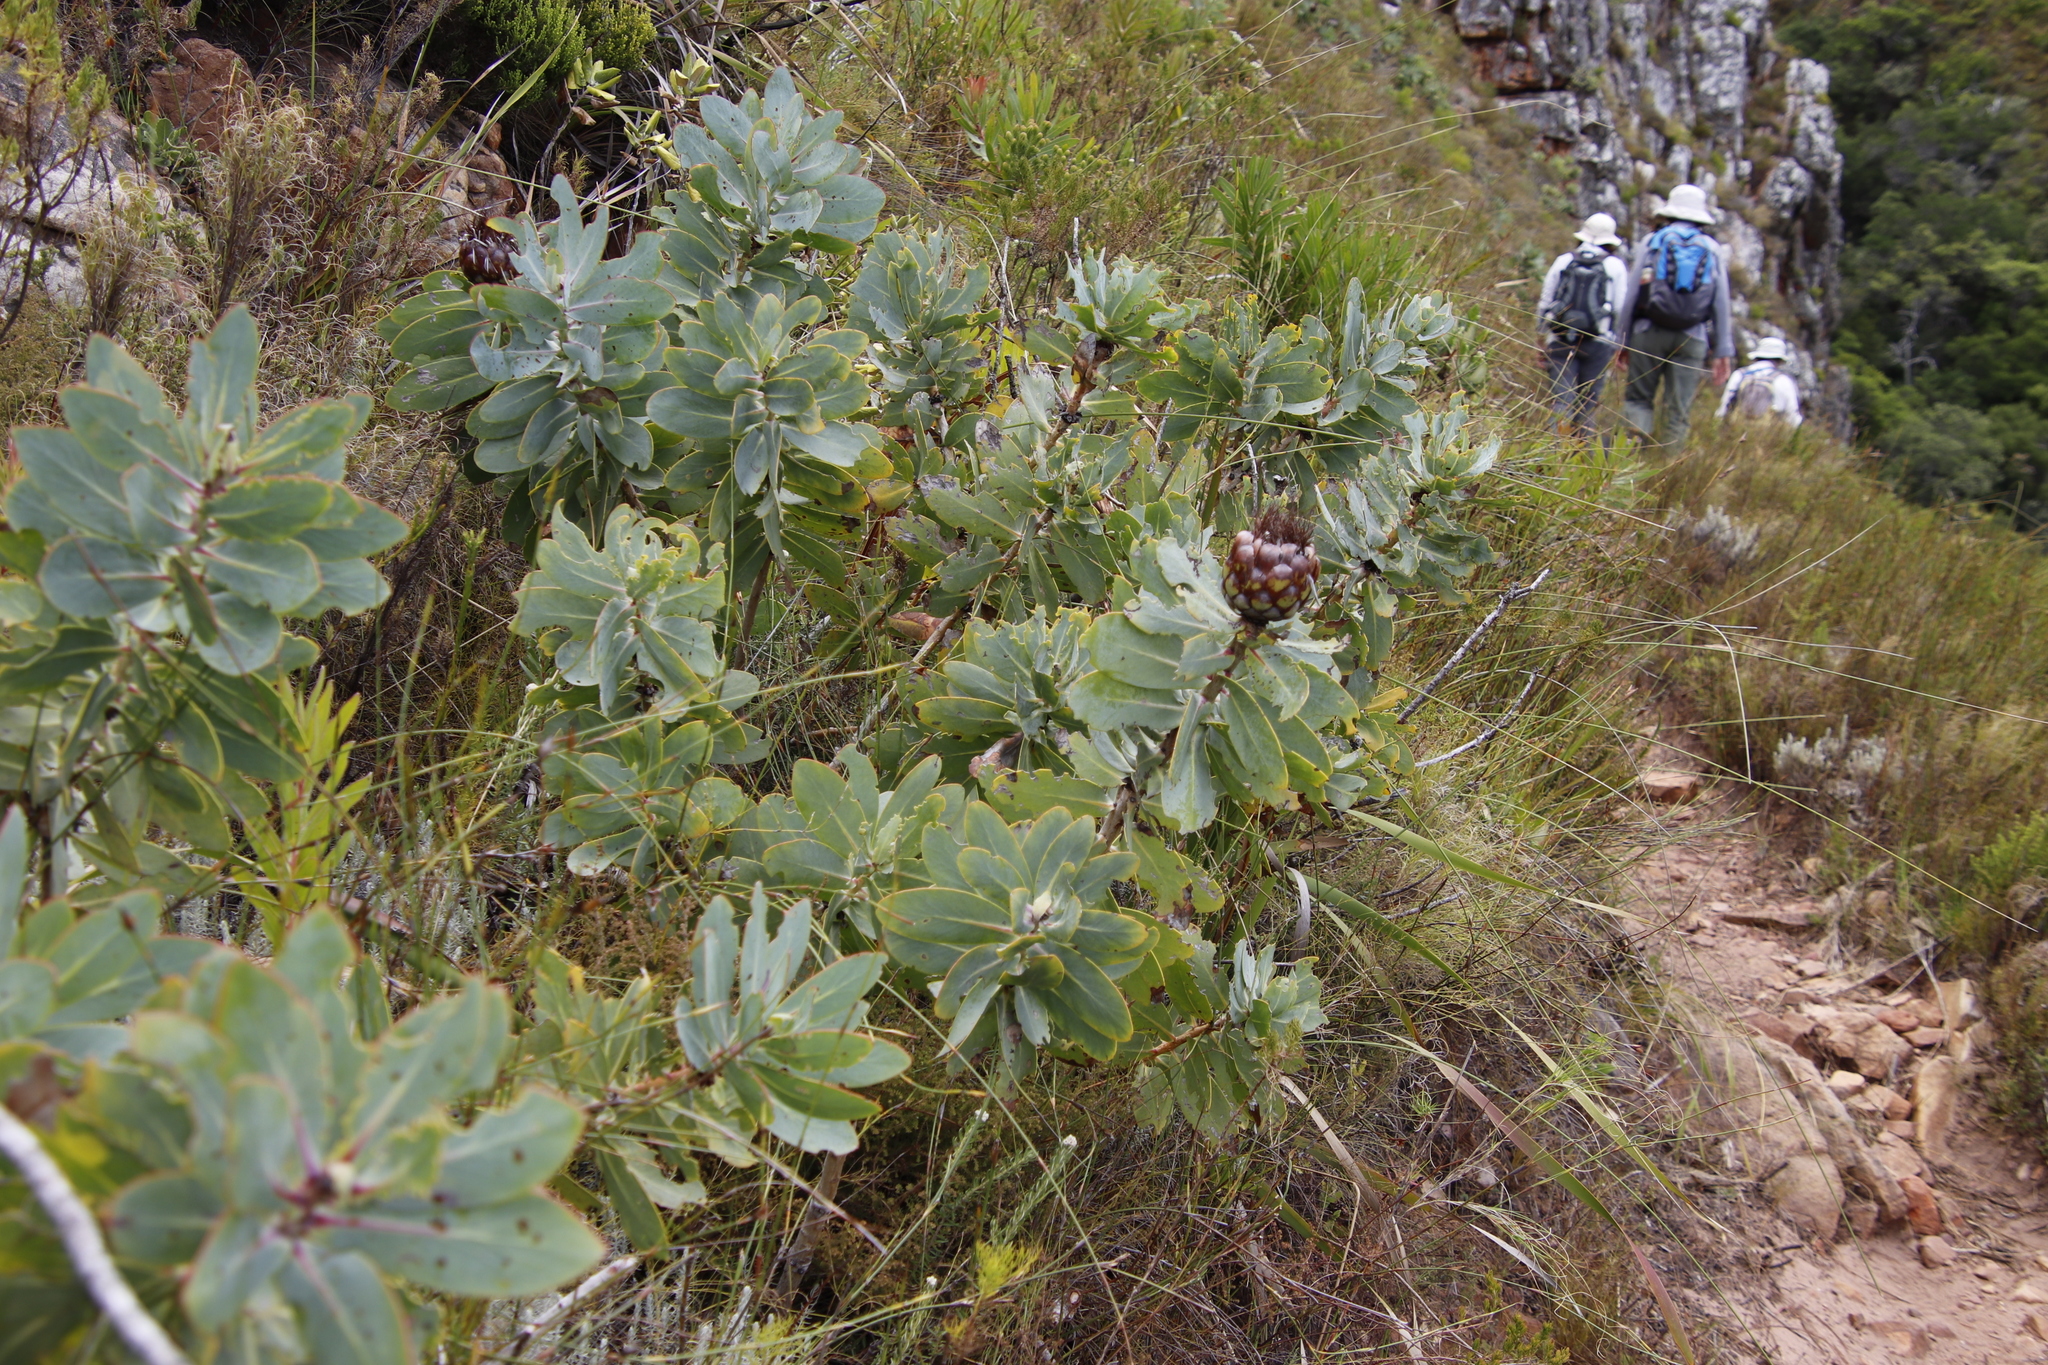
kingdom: Plantae
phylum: Tracheophyta
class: Magnoliopsida
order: Proteales
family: Proteaceae
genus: Protea
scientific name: Protea nitida
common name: Tree protea
